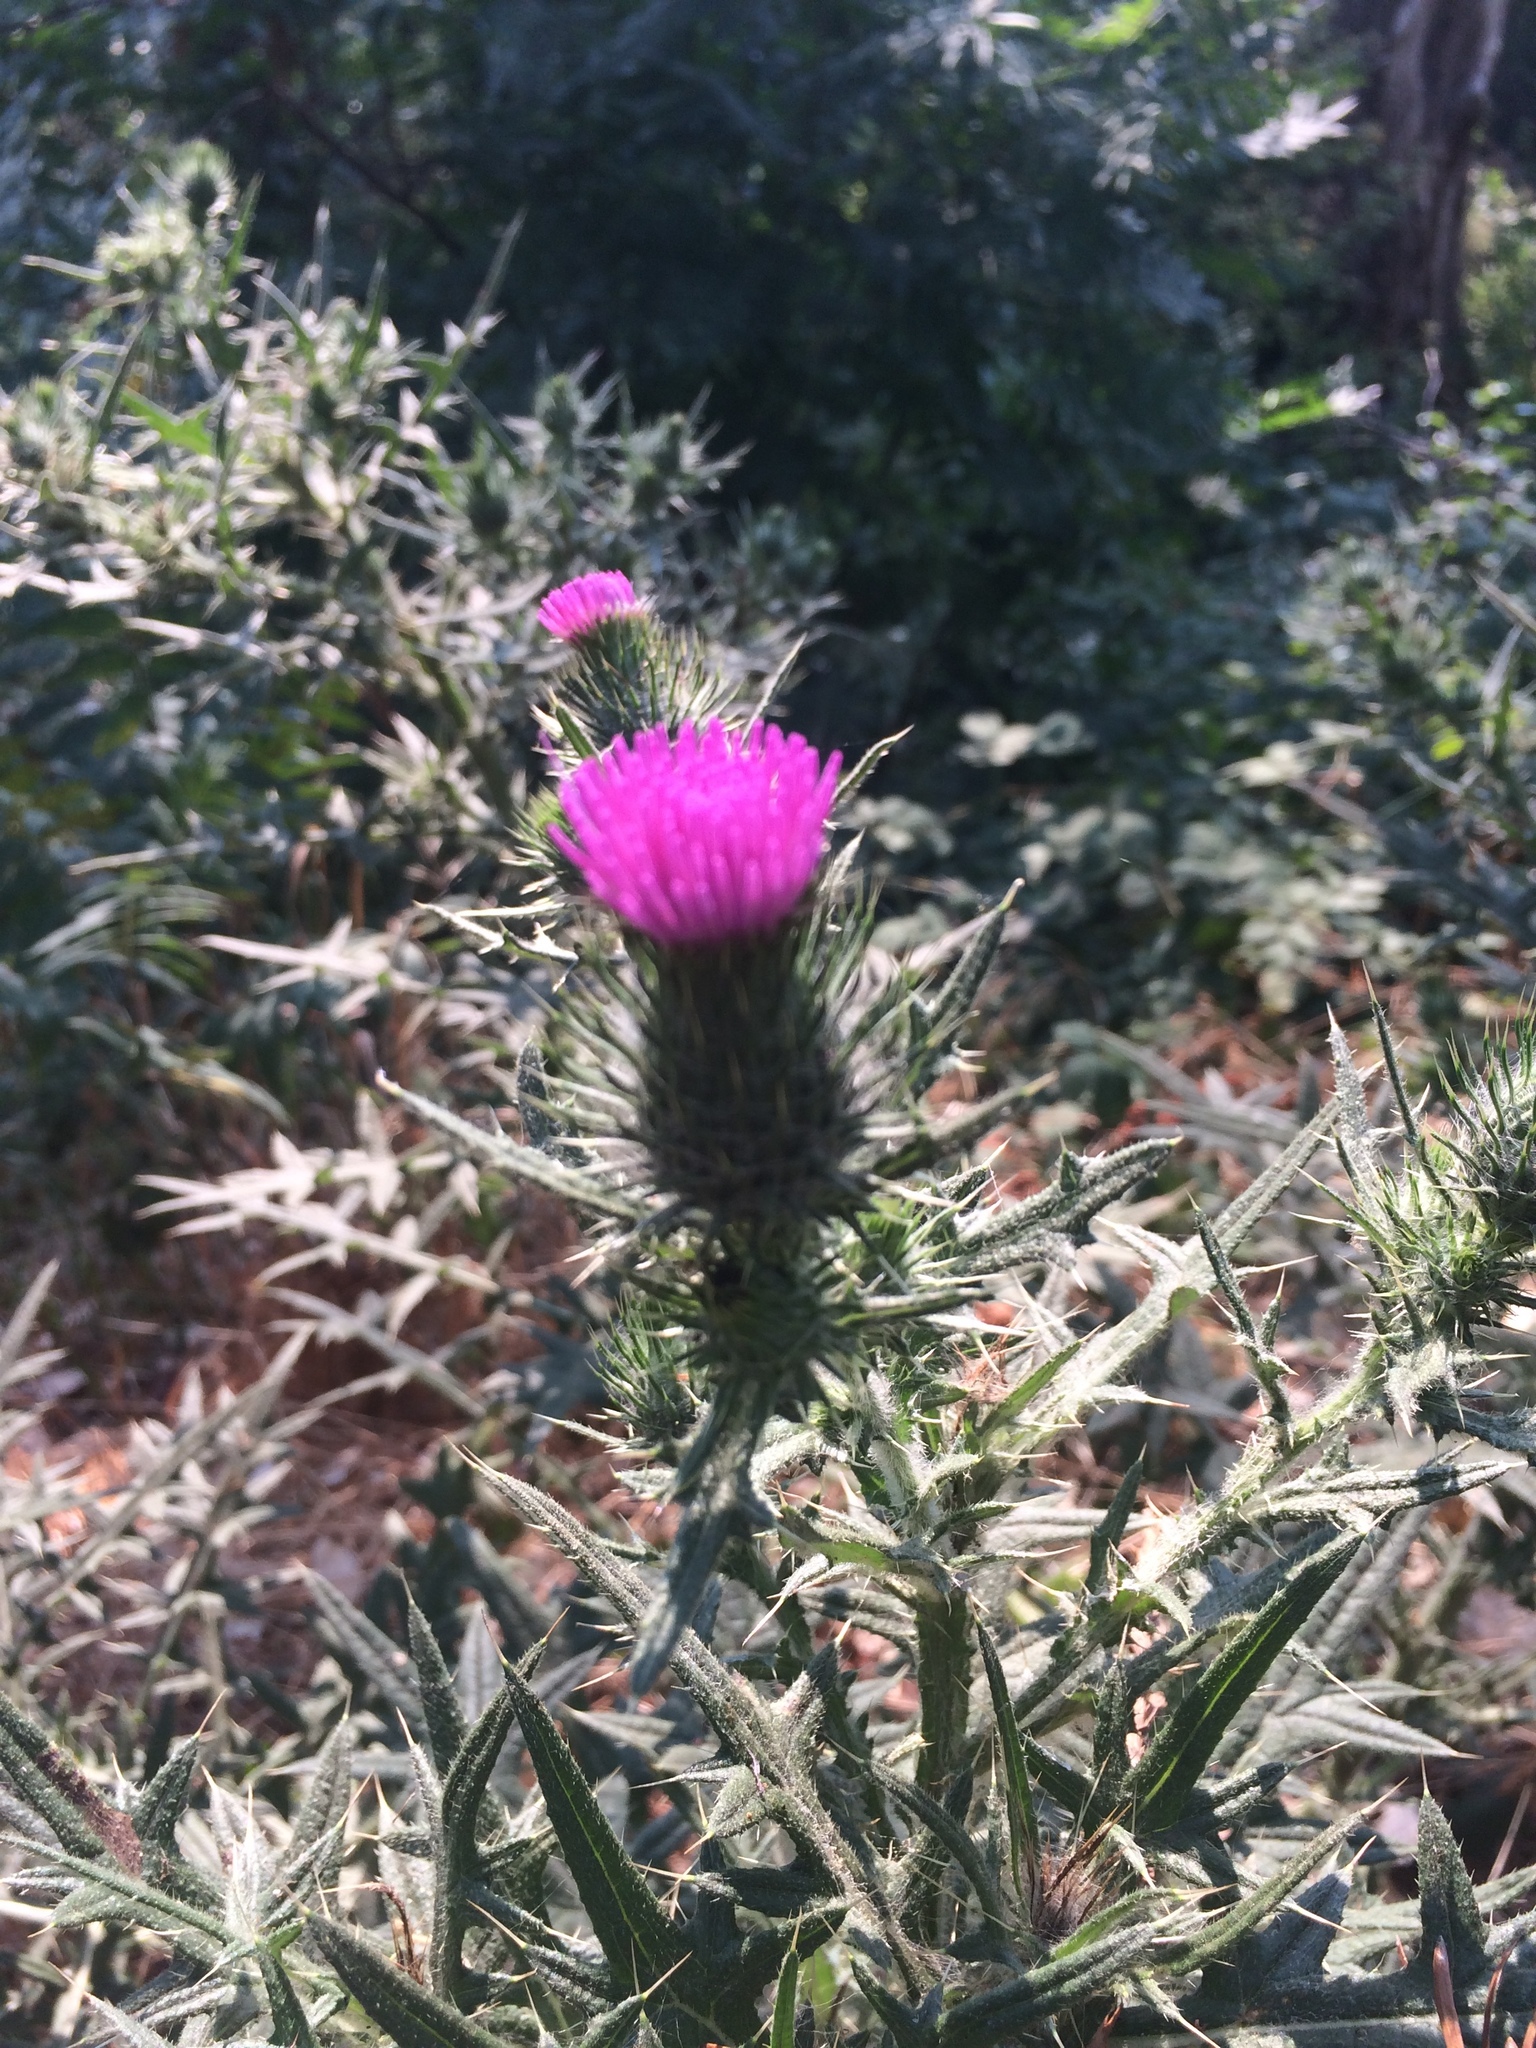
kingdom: Plantae
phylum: Tracheophyta
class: Magnoliopsida
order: Asterales
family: Asteraceae
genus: Cirsium
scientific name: Cirsium vulgare
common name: Bull thistle
